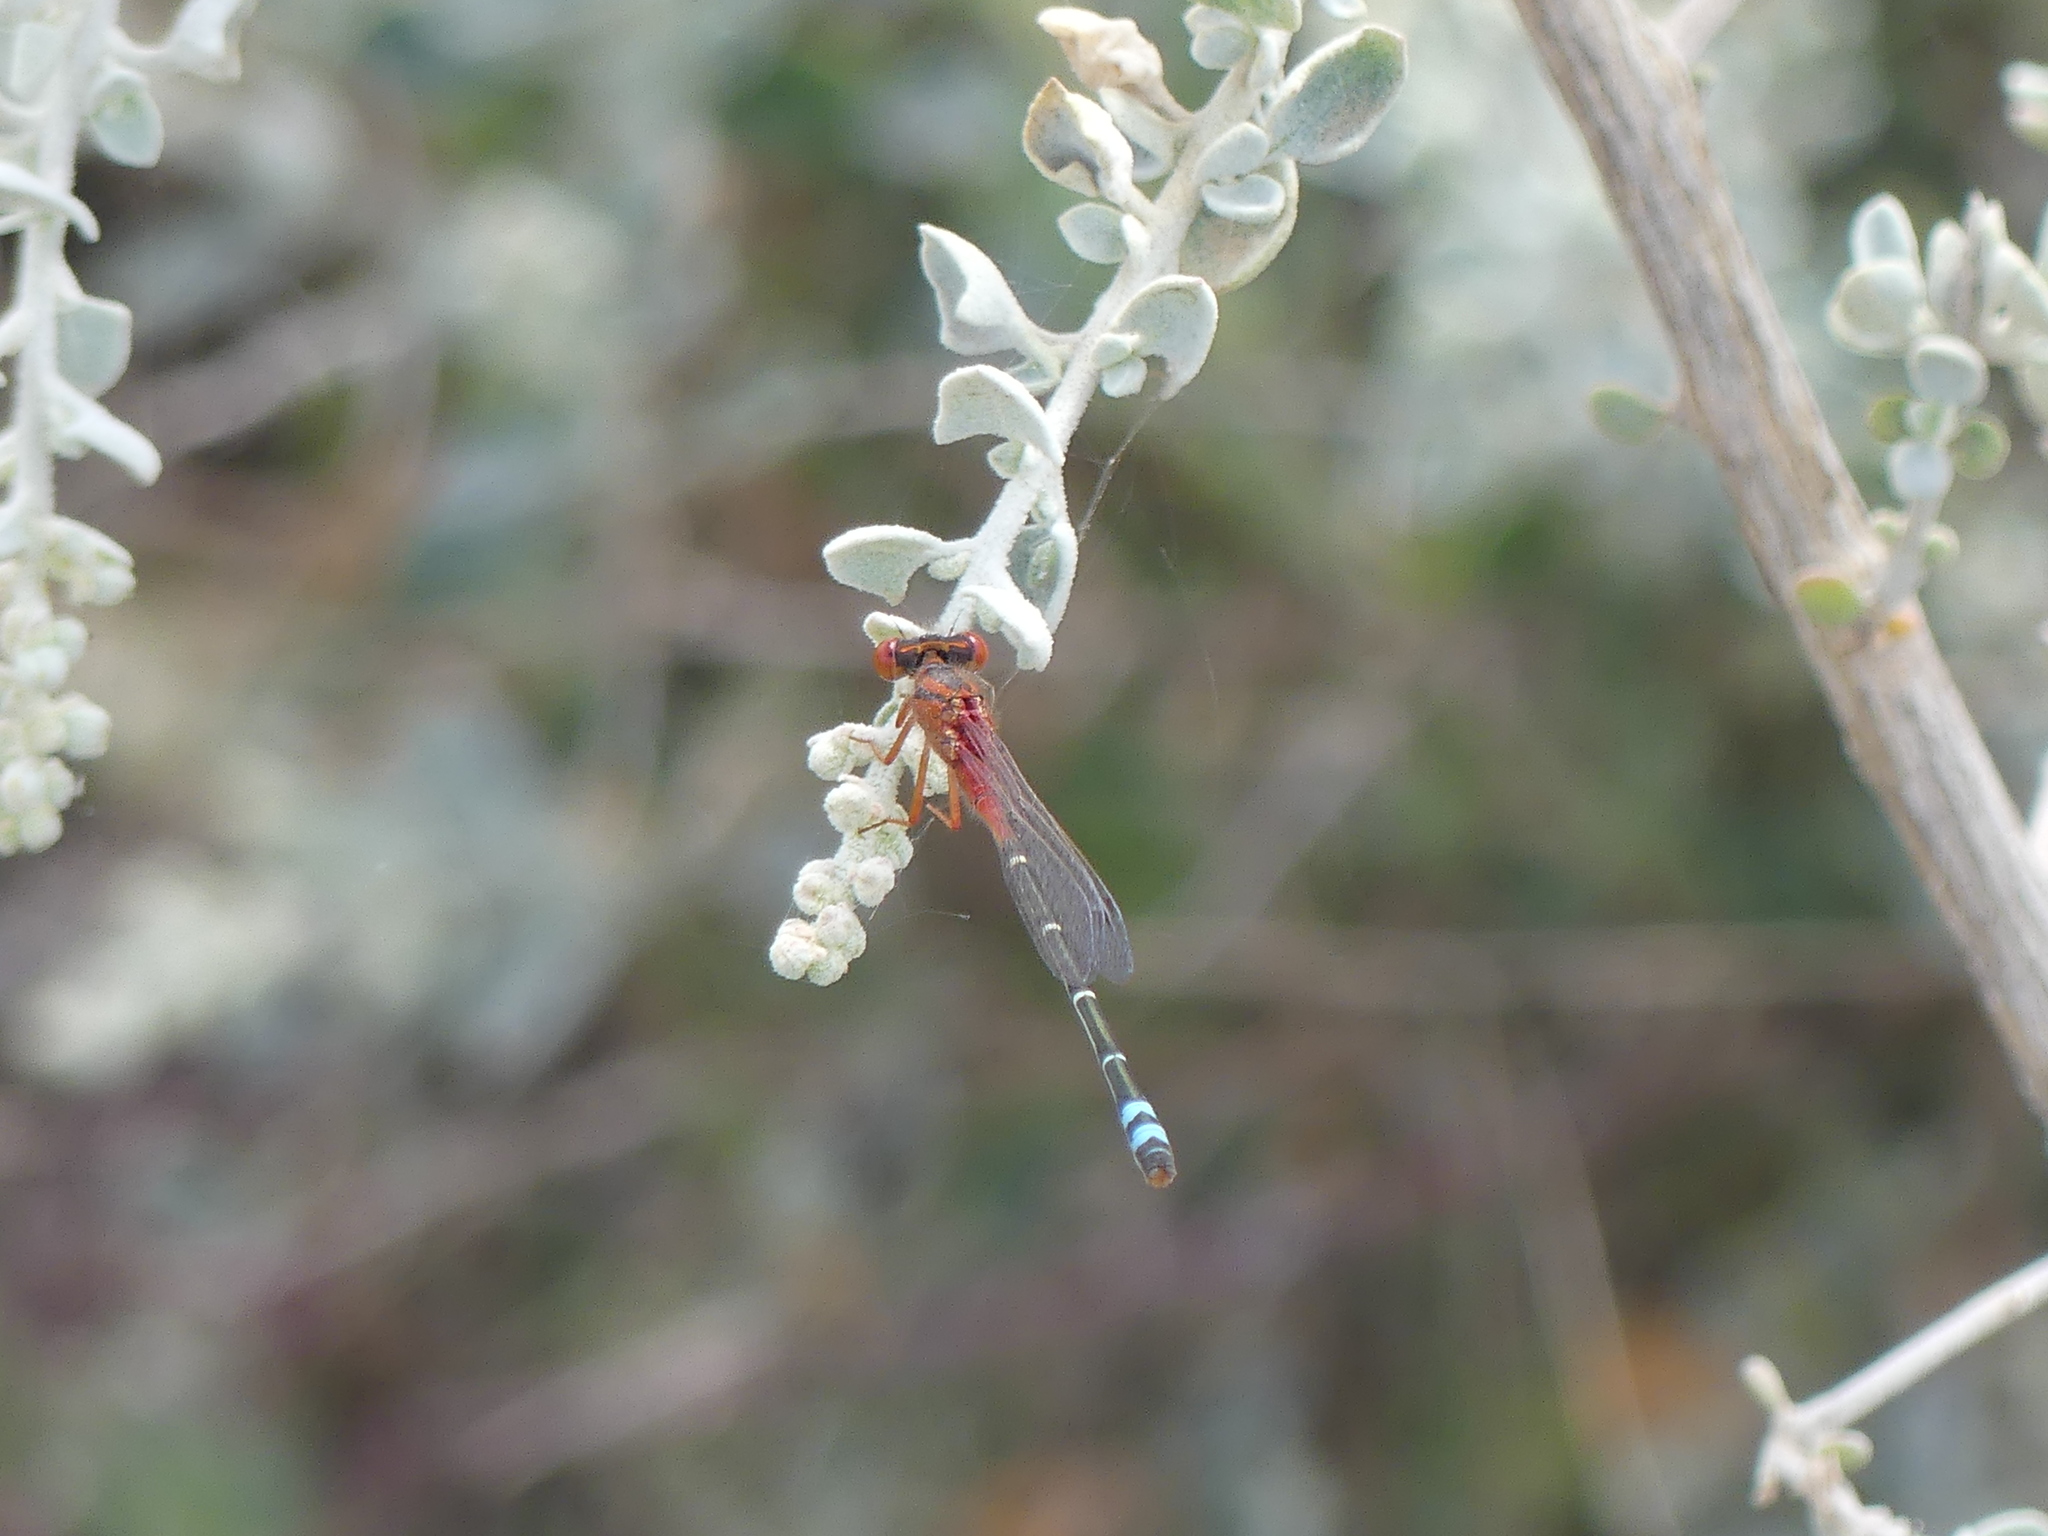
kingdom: Animalia
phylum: Arthropoda
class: Insecta
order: Odonata
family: Coenagrionidae
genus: Xanthagrion
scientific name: Xanthagrion erythroneurum
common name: Red and blue damsel
